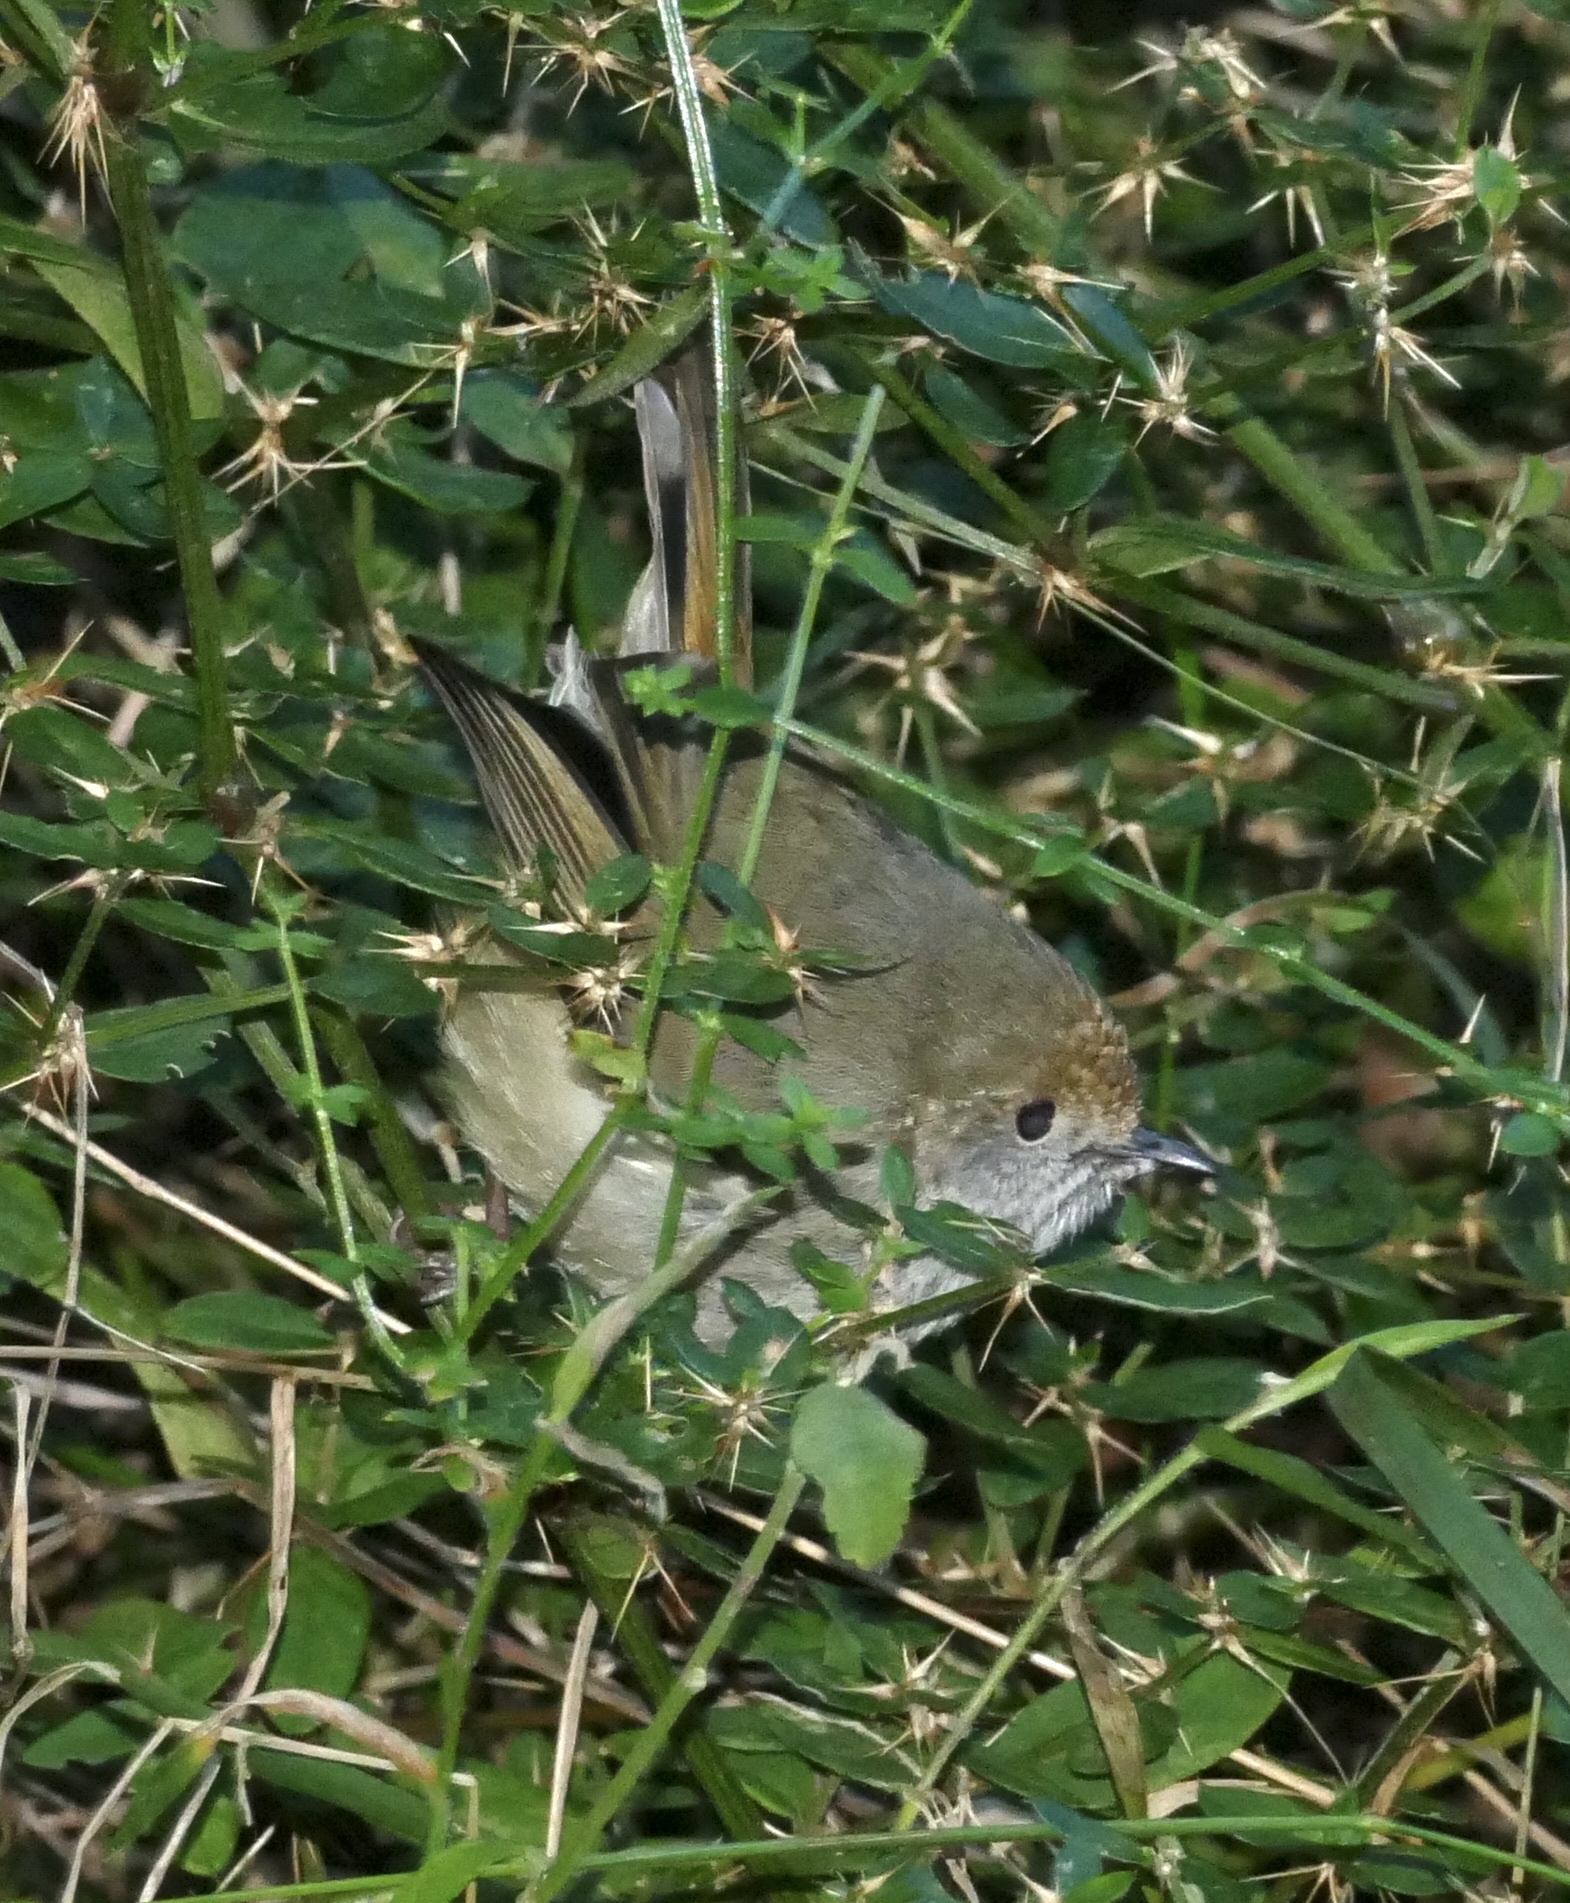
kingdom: Animalia
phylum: Chordata
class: Aves
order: Passeriformes
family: Acanthizidae
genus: Acanthiza
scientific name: Acanthiza pusilla
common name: Brown thornbill
